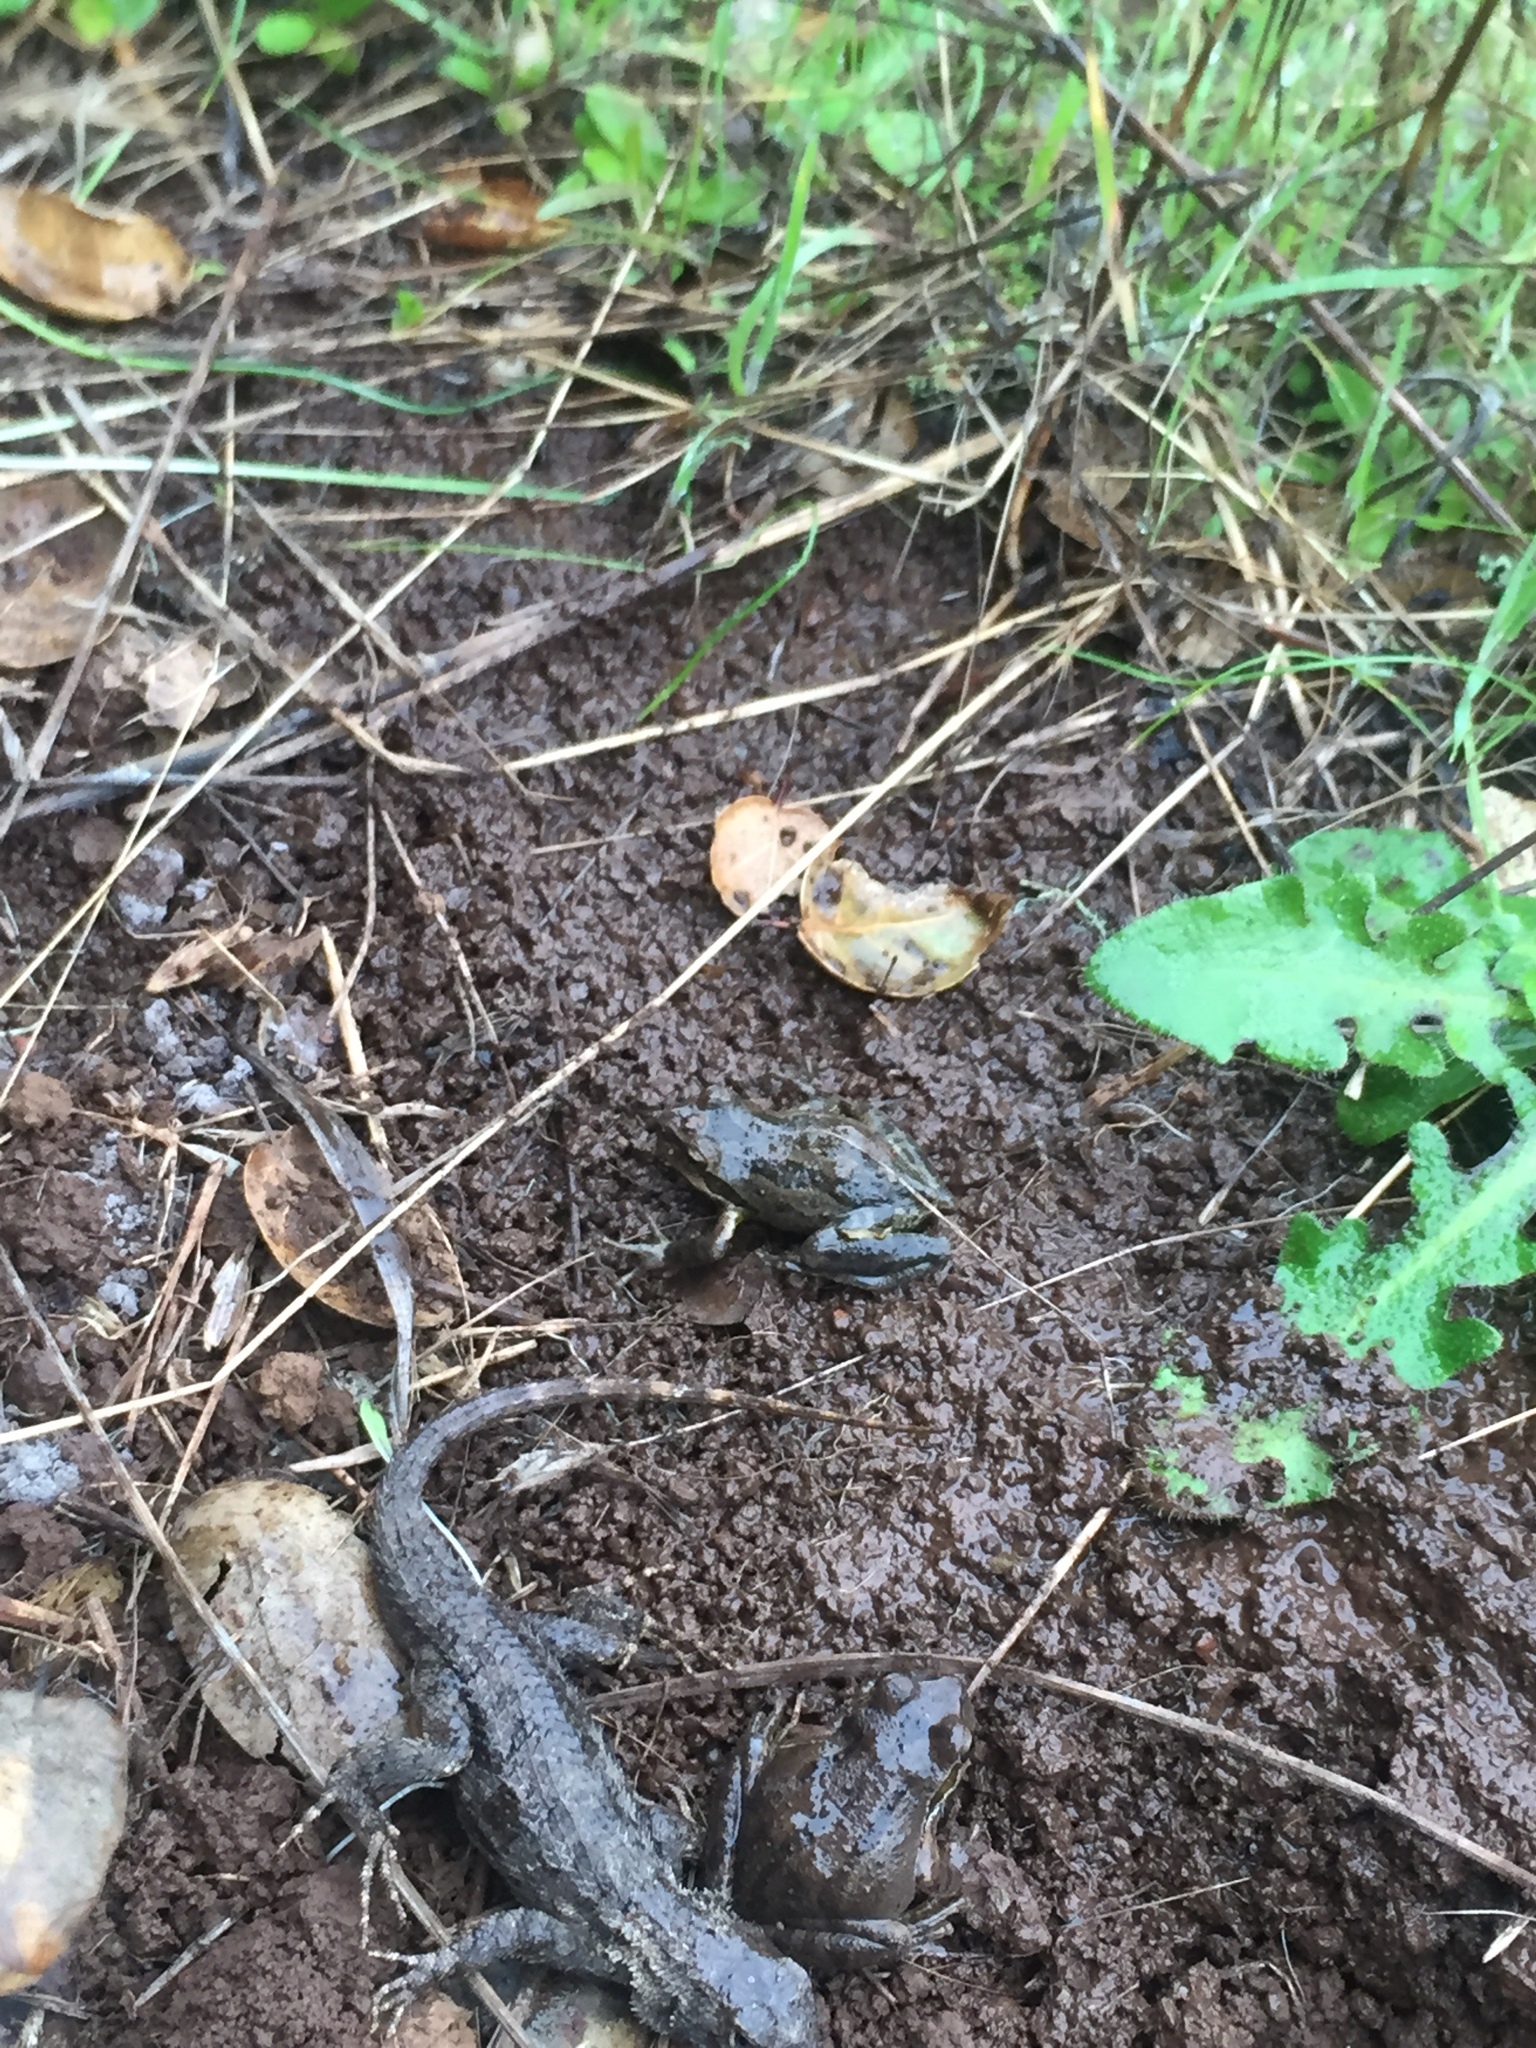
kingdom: Animalia
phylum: Chordata
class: Amphibia
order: Anura
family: Hylidae
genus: Pseudacris
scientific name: Pseudacris regilla
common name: Pacific chorus frog
